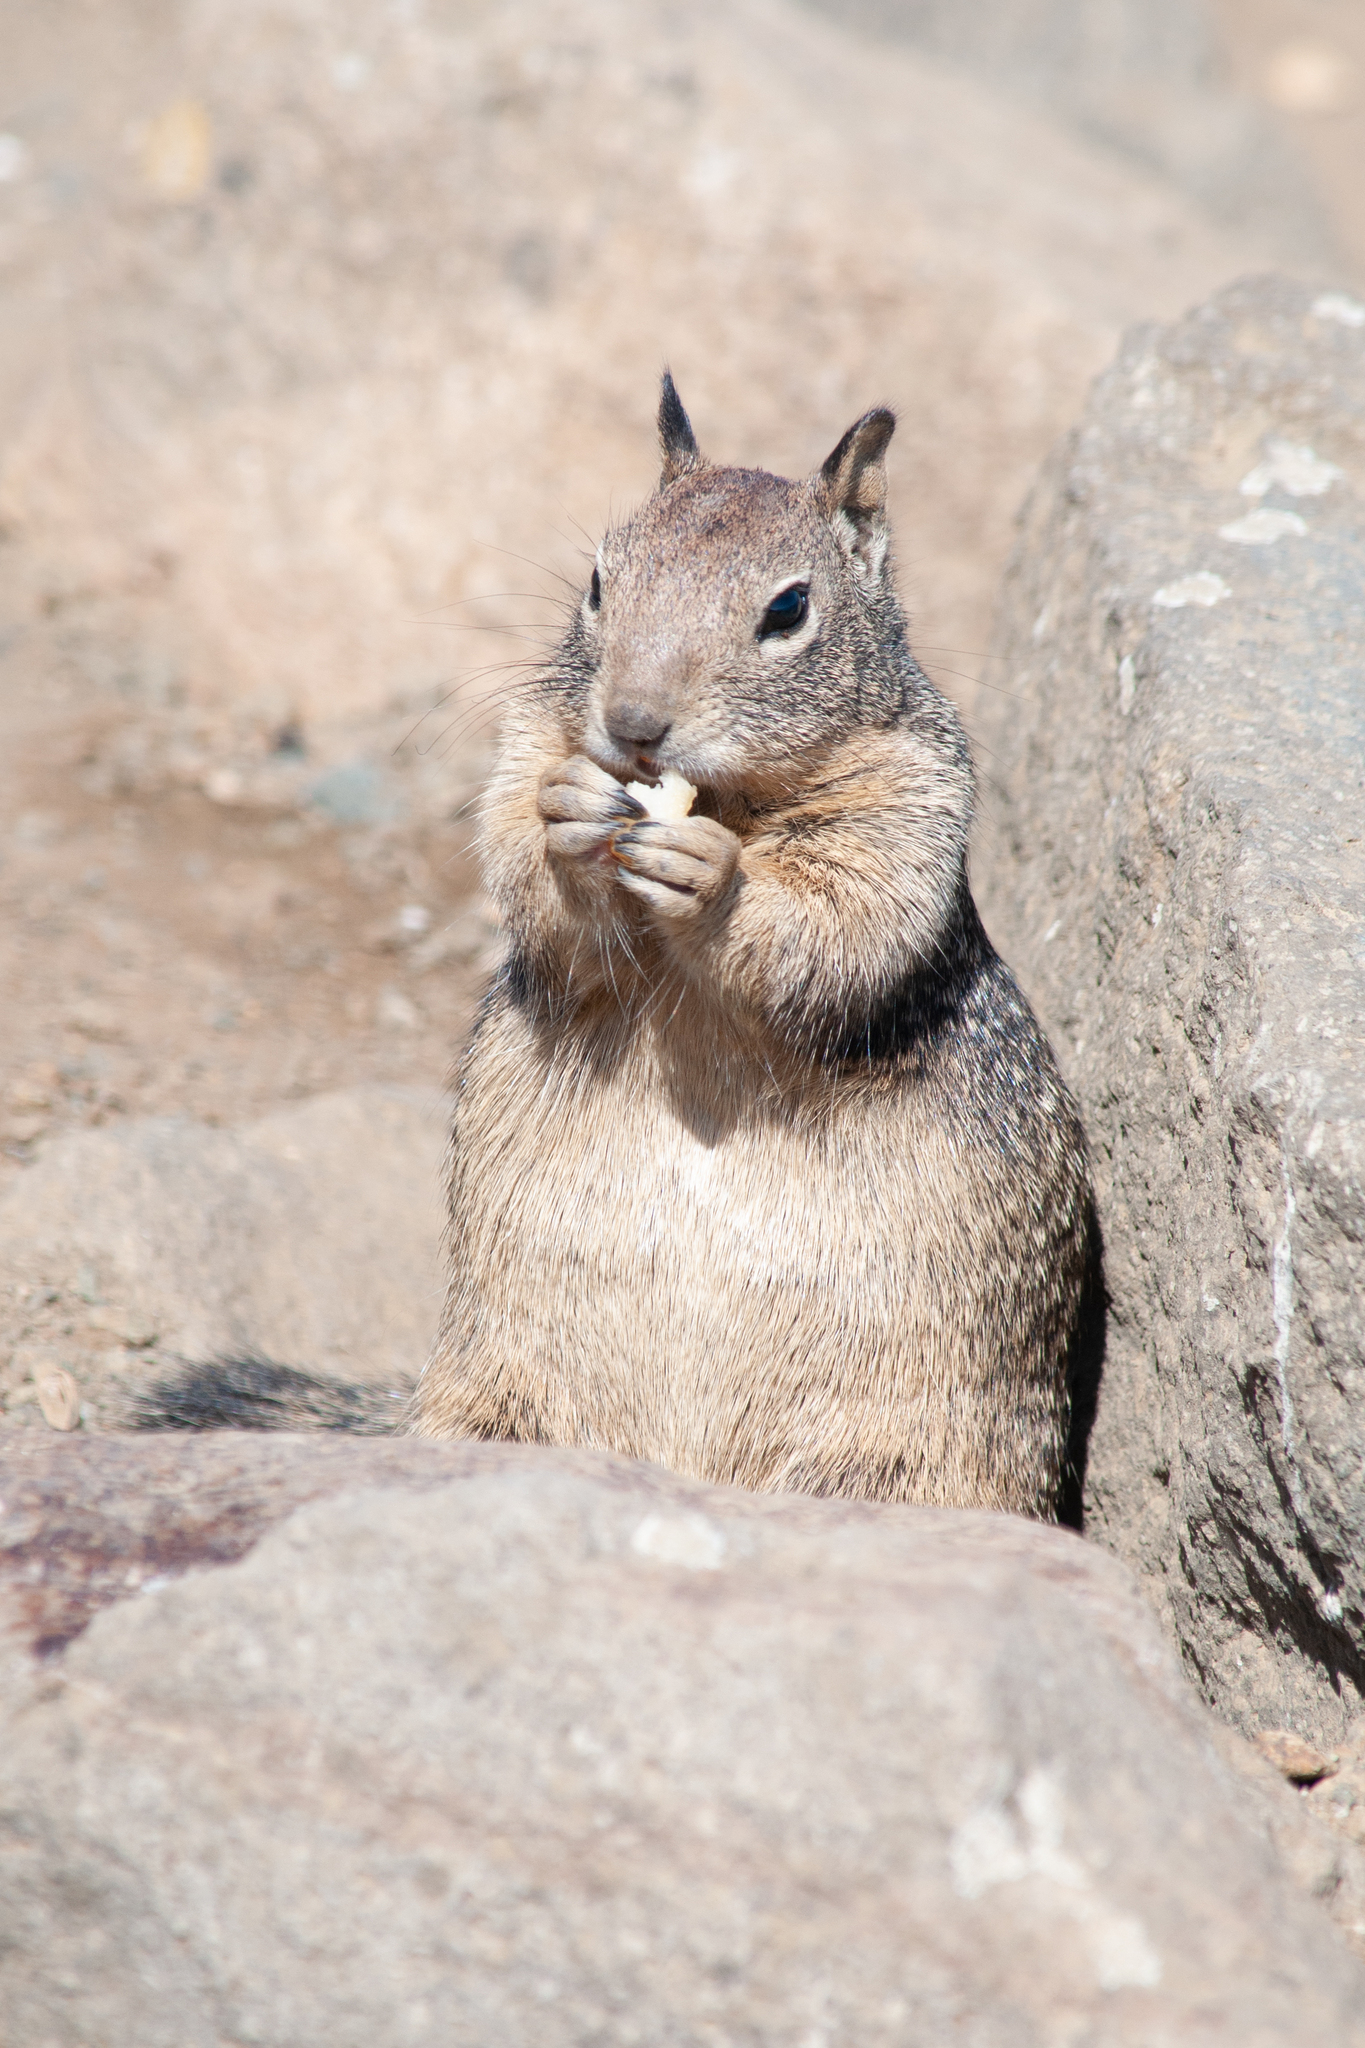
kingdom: Animalia
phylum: Chordata
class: Mammalia
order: Rodentia
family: Sciuridae
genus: Otospermophilus
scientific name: Otospermophilus beecheyi
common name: California ground squirrel
